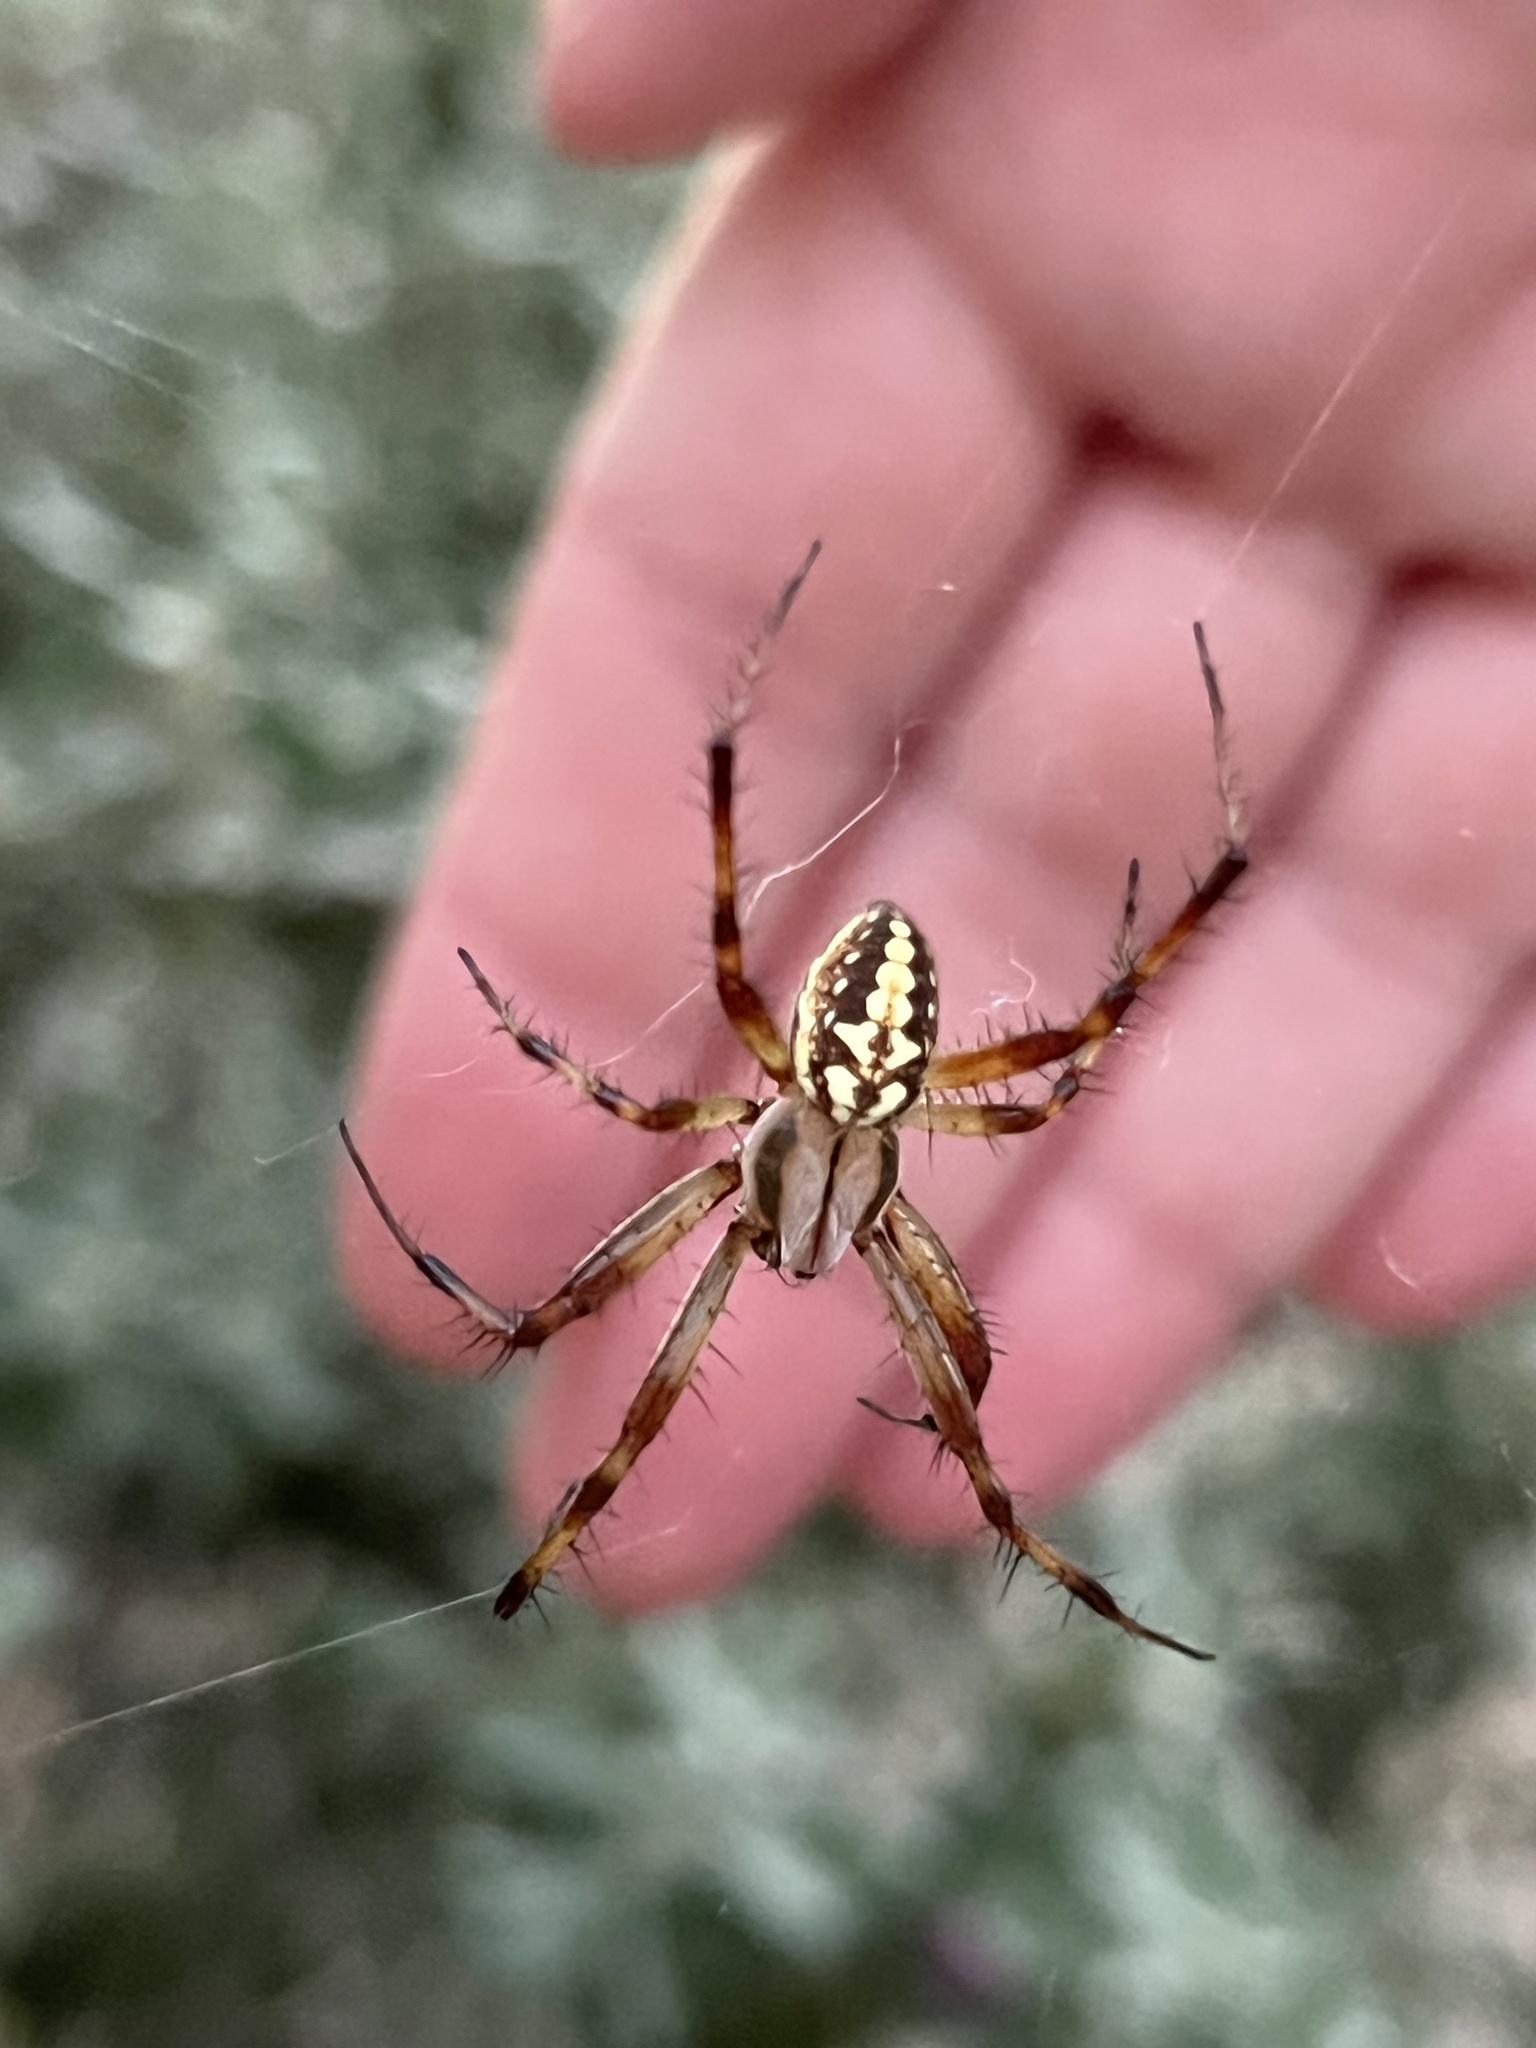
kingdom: Animalia
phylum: Arthropoda
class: Arachnida
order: Araneae
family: Araneidae
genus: Neoscona
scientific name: Neoscona oaxacensis
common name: Orb weavers
